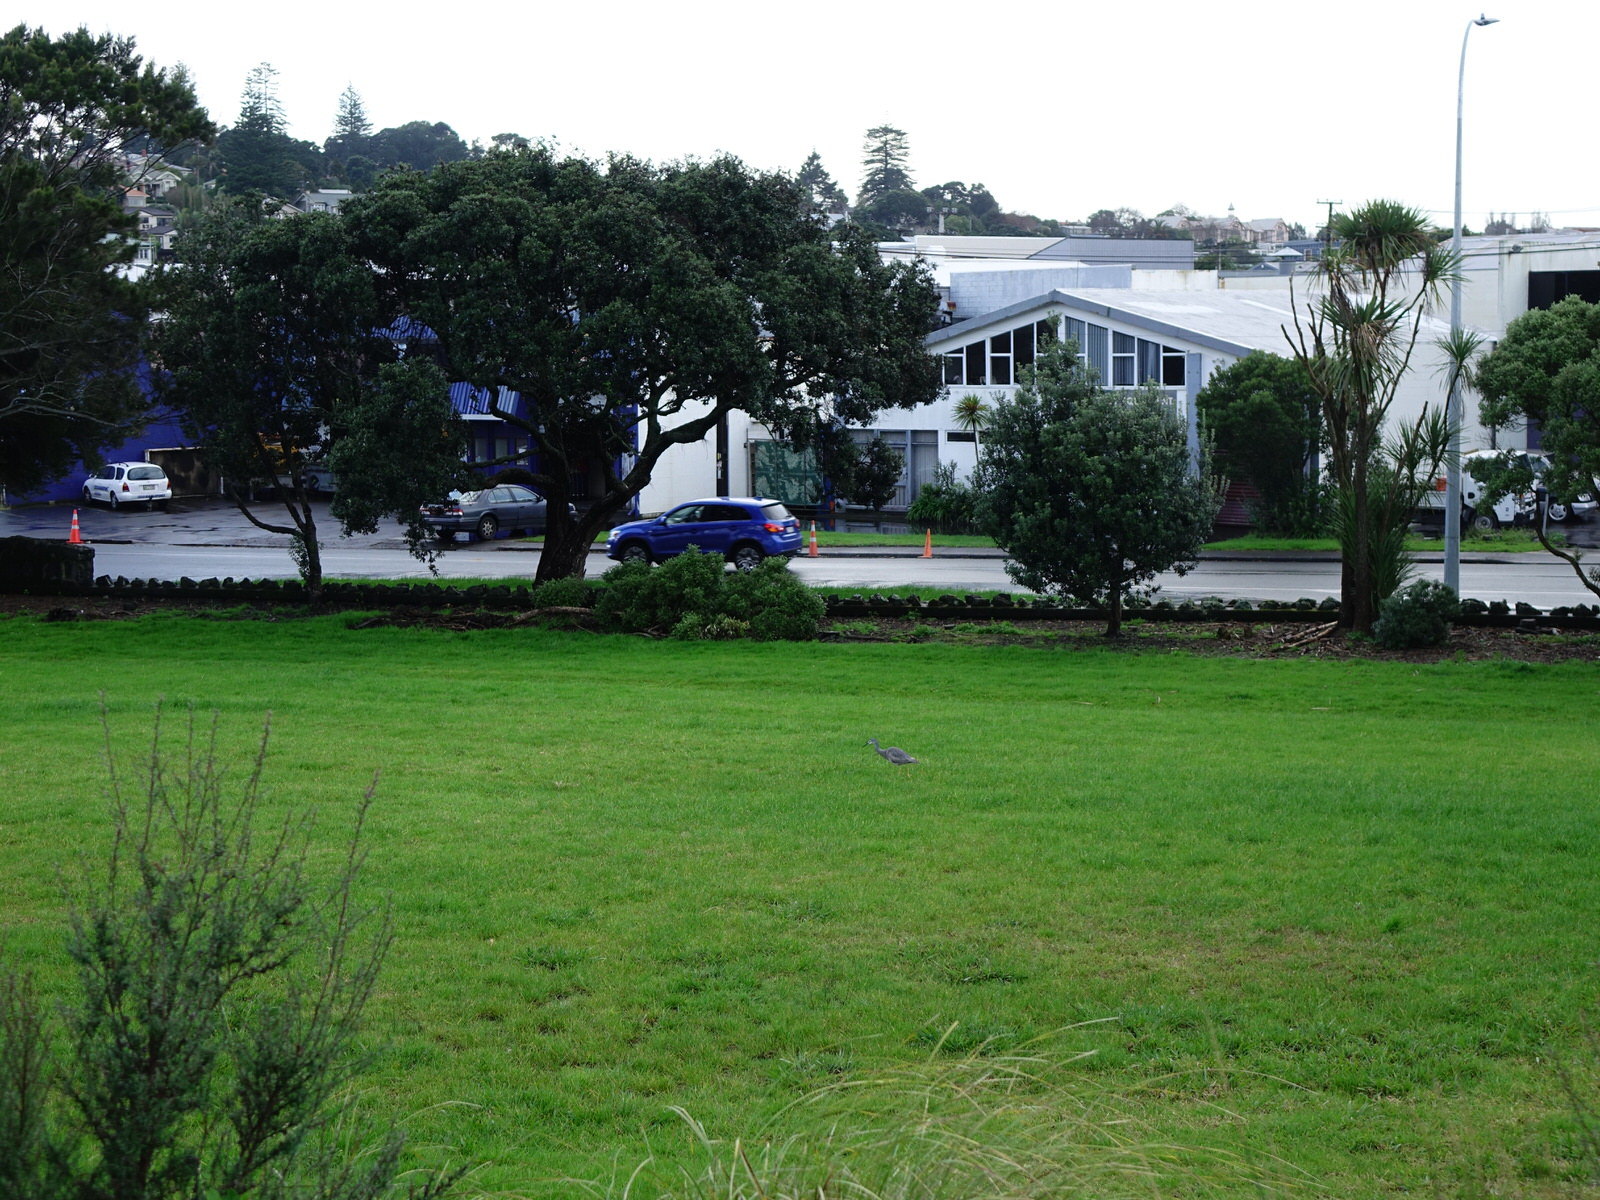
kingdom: Animalia
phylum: Chordata
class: Aves
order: Pelecaniformes
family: Ardeidae
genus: Egretta
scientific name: Egretta novaehollandiae
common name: White-faced heron
